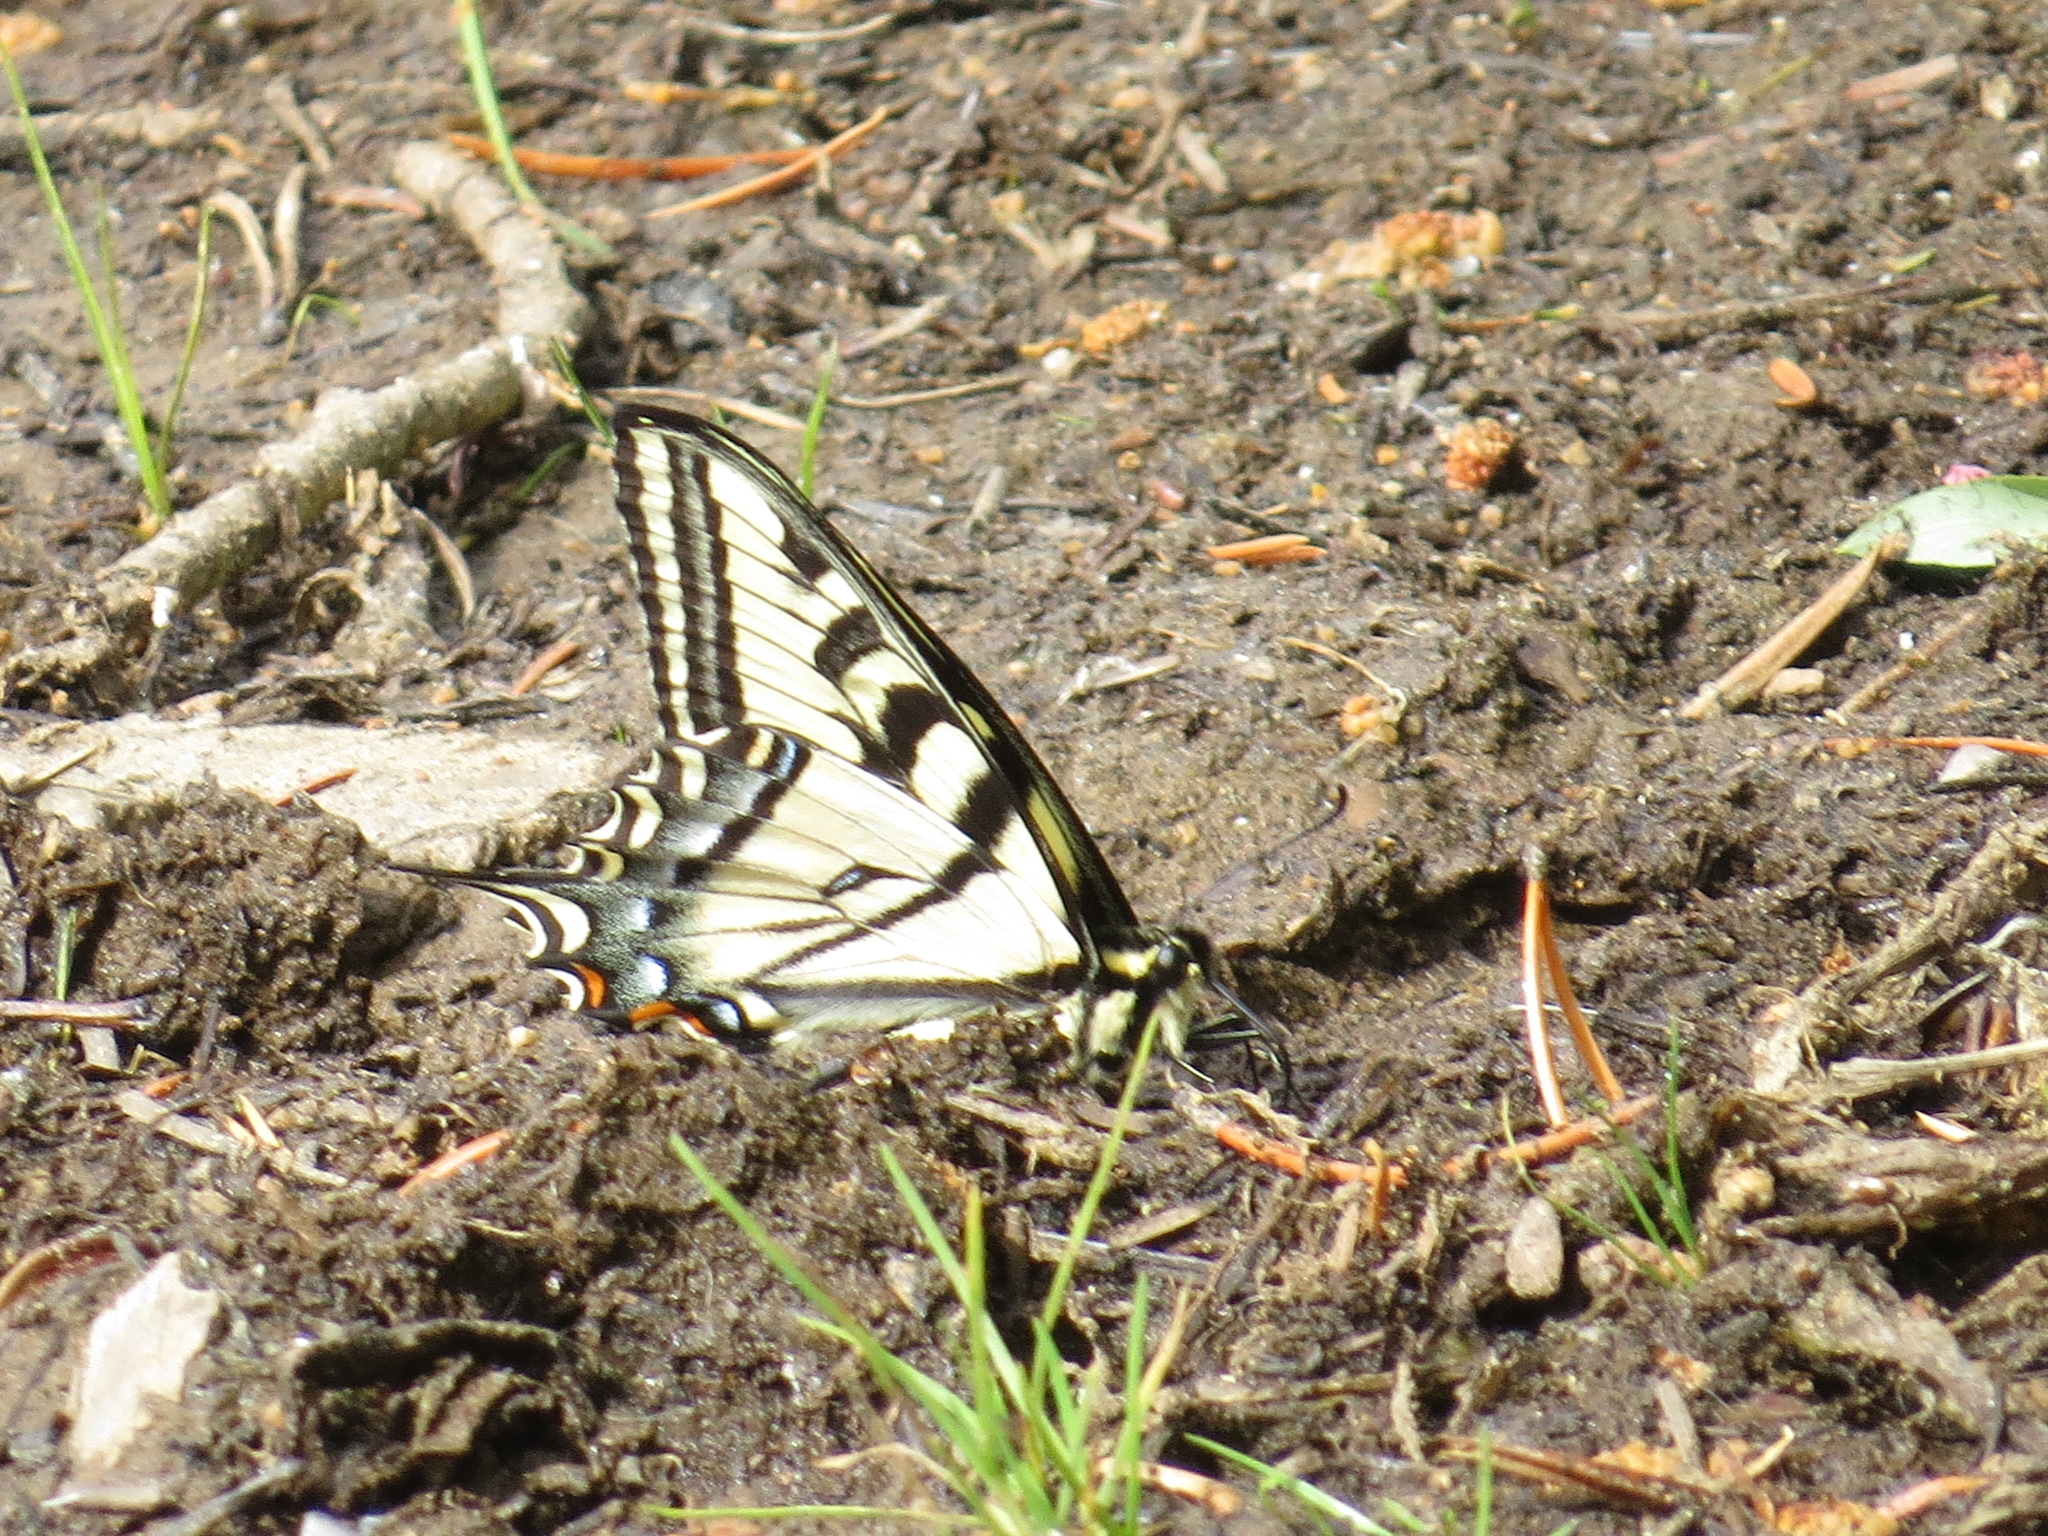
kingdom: Animalia
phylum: Arthropoda
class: Insecta
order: Lepidoptera
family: Papilionidae
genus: Papilio
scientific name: Papilio rutulus
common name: Western tiger swallowtail
